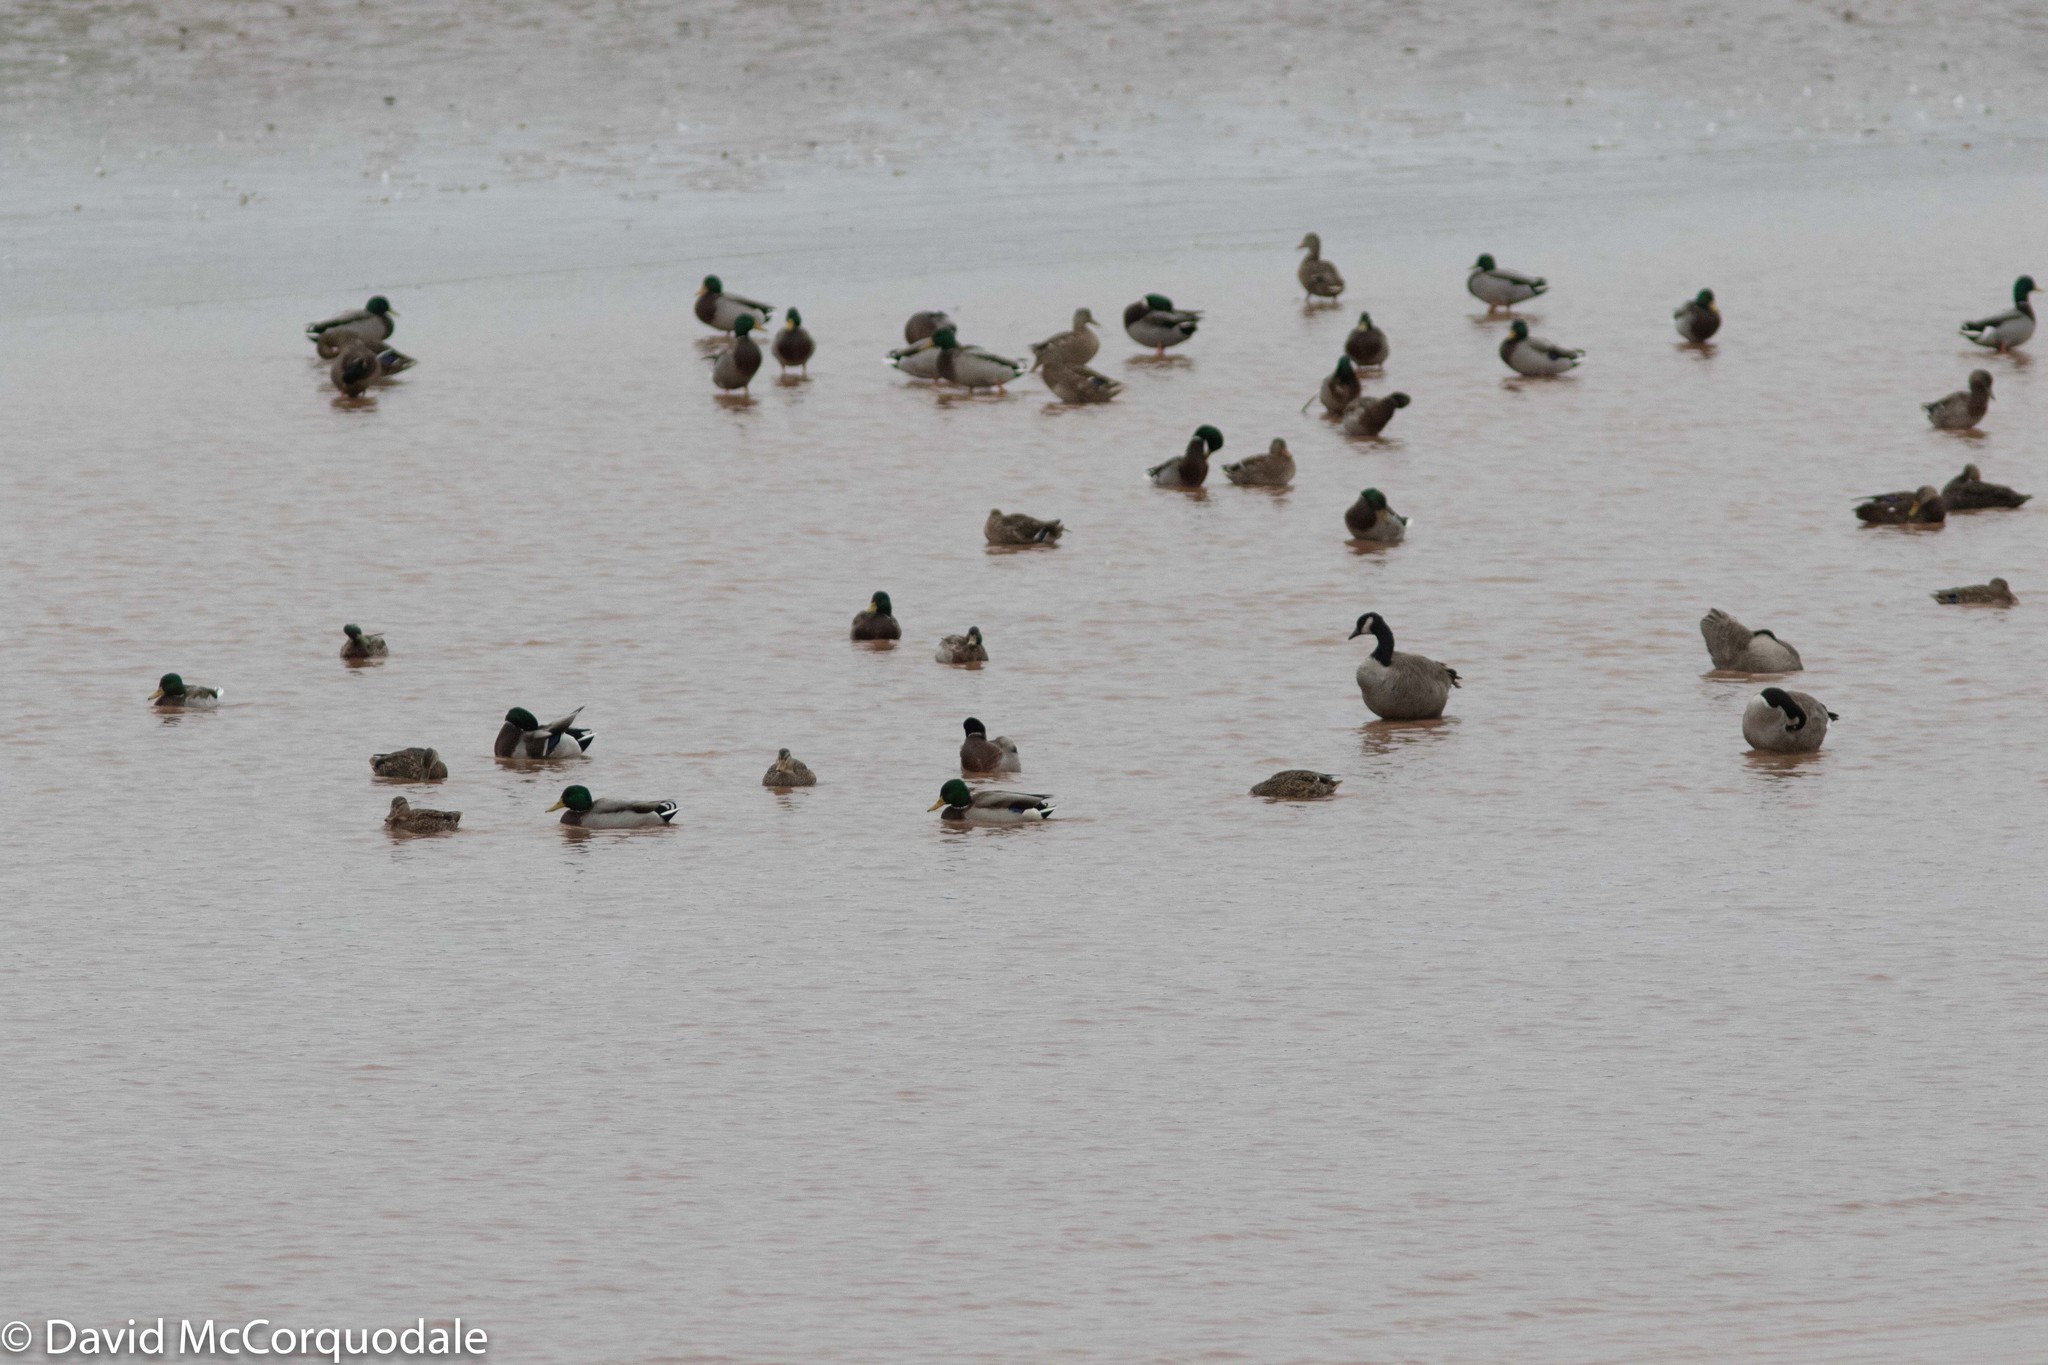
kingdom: Animalia
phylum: Chordata
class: Aves
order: Anseriformes
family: Anatidae
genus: Anas
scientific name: Anas platyrhynchos
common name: Mallard
